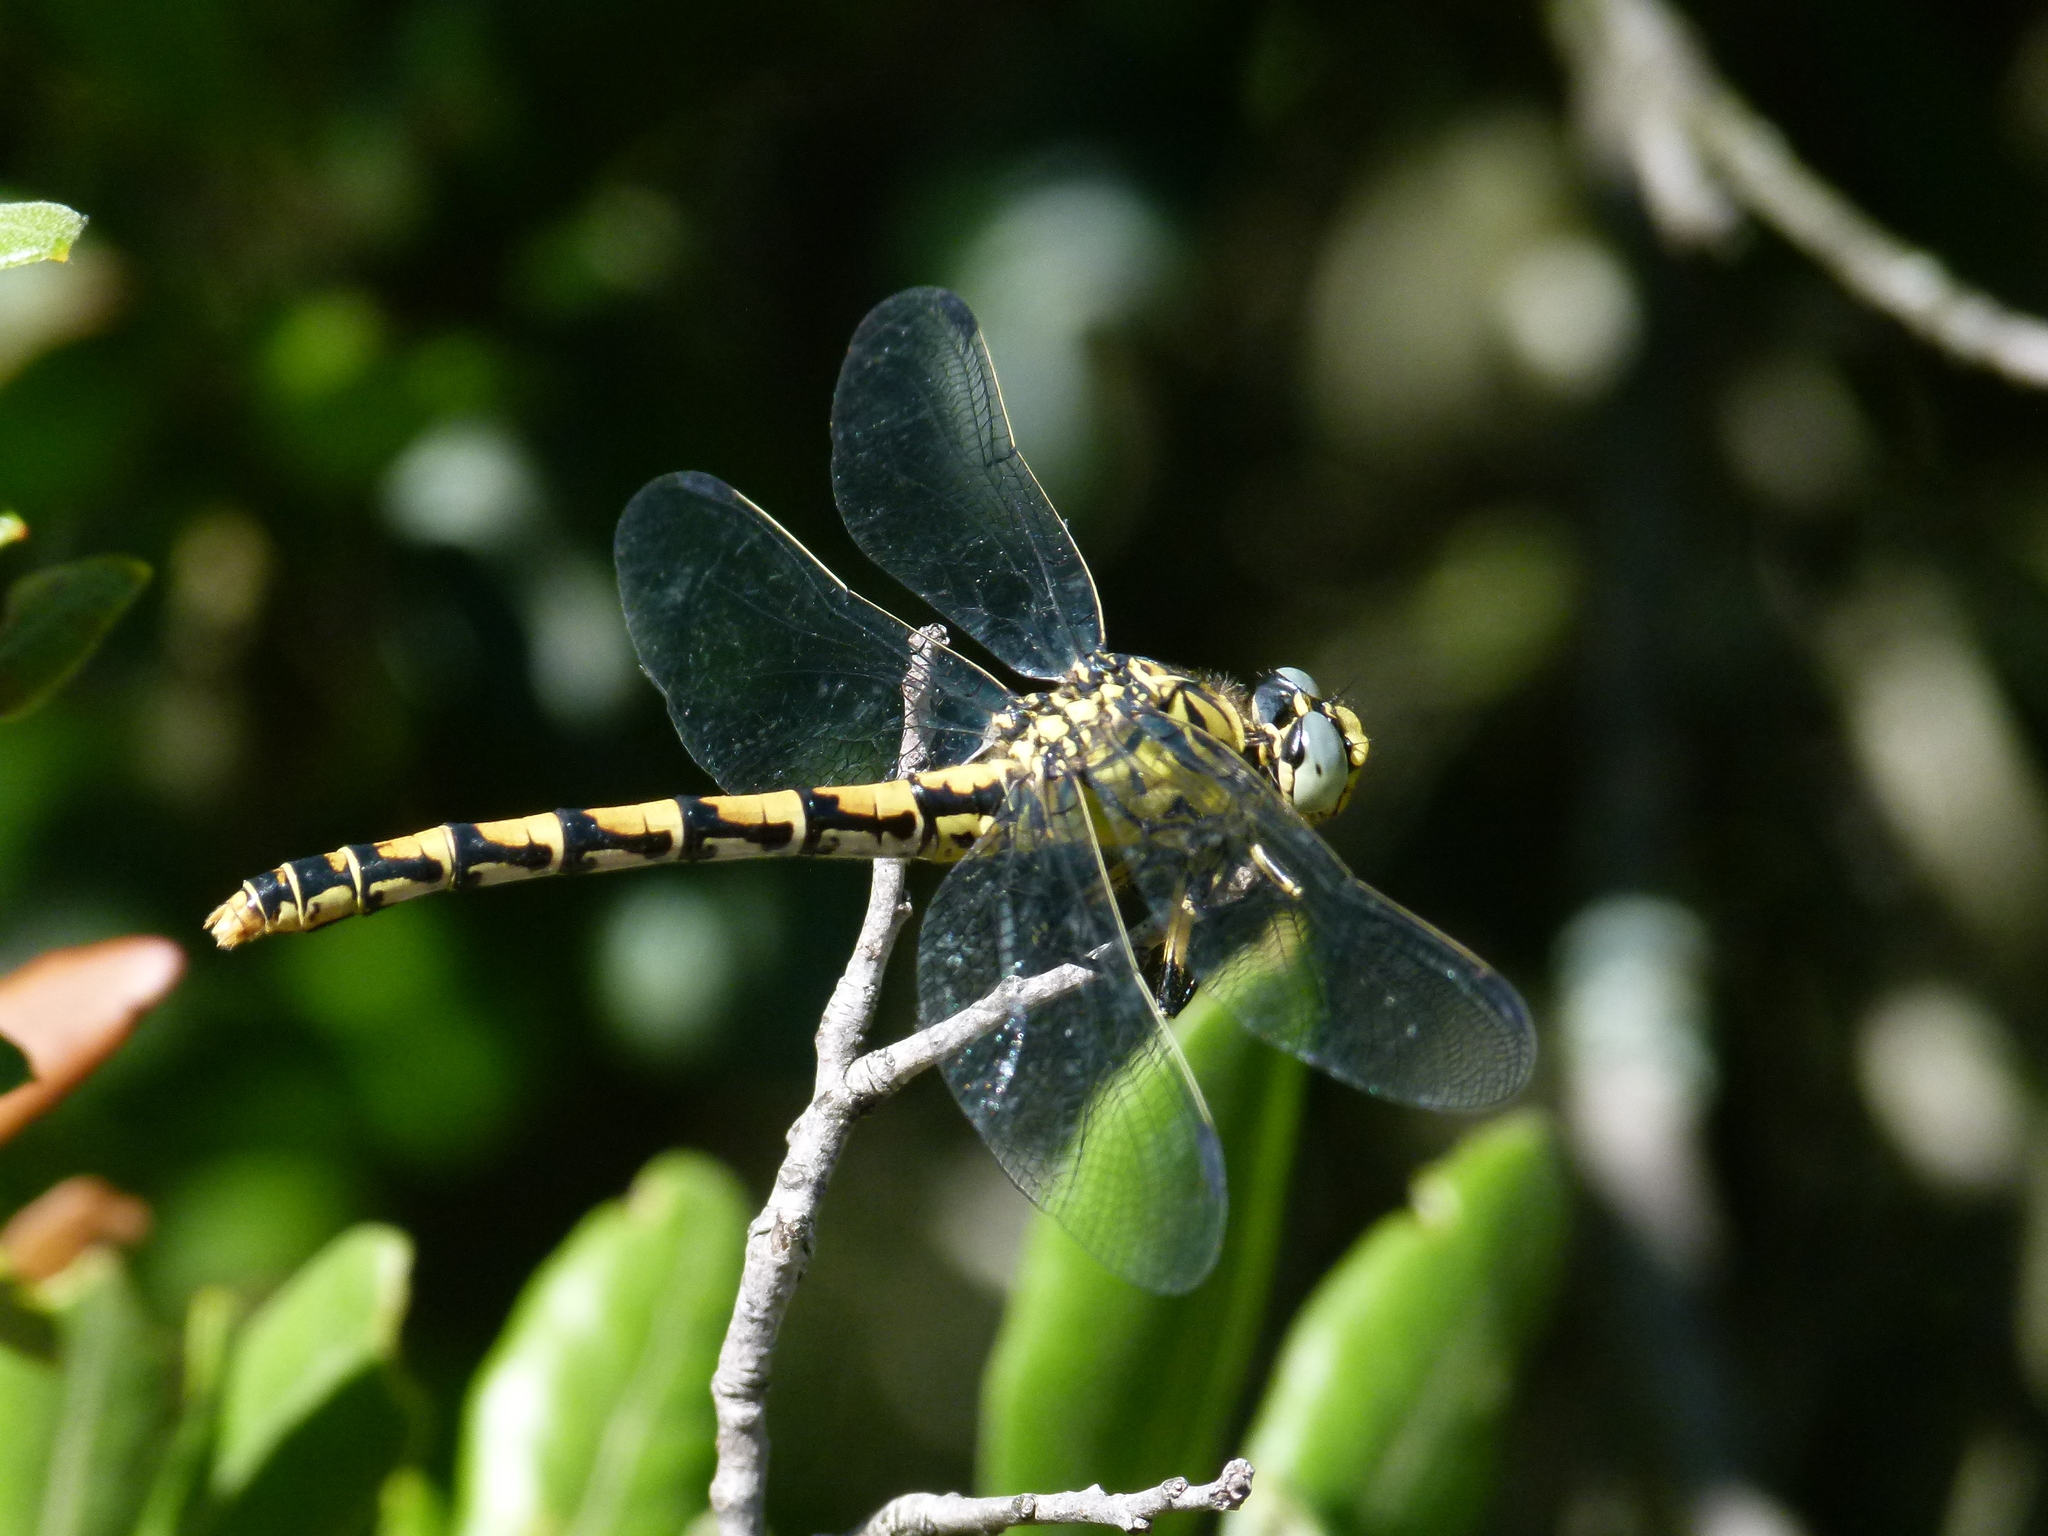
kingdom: Animalia
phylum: Arthropoda
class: Insecta
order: Odonata
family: Gomphidae
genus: Onychogomphus
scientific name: Onychogomphus forcipatus
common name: Small pincertail
